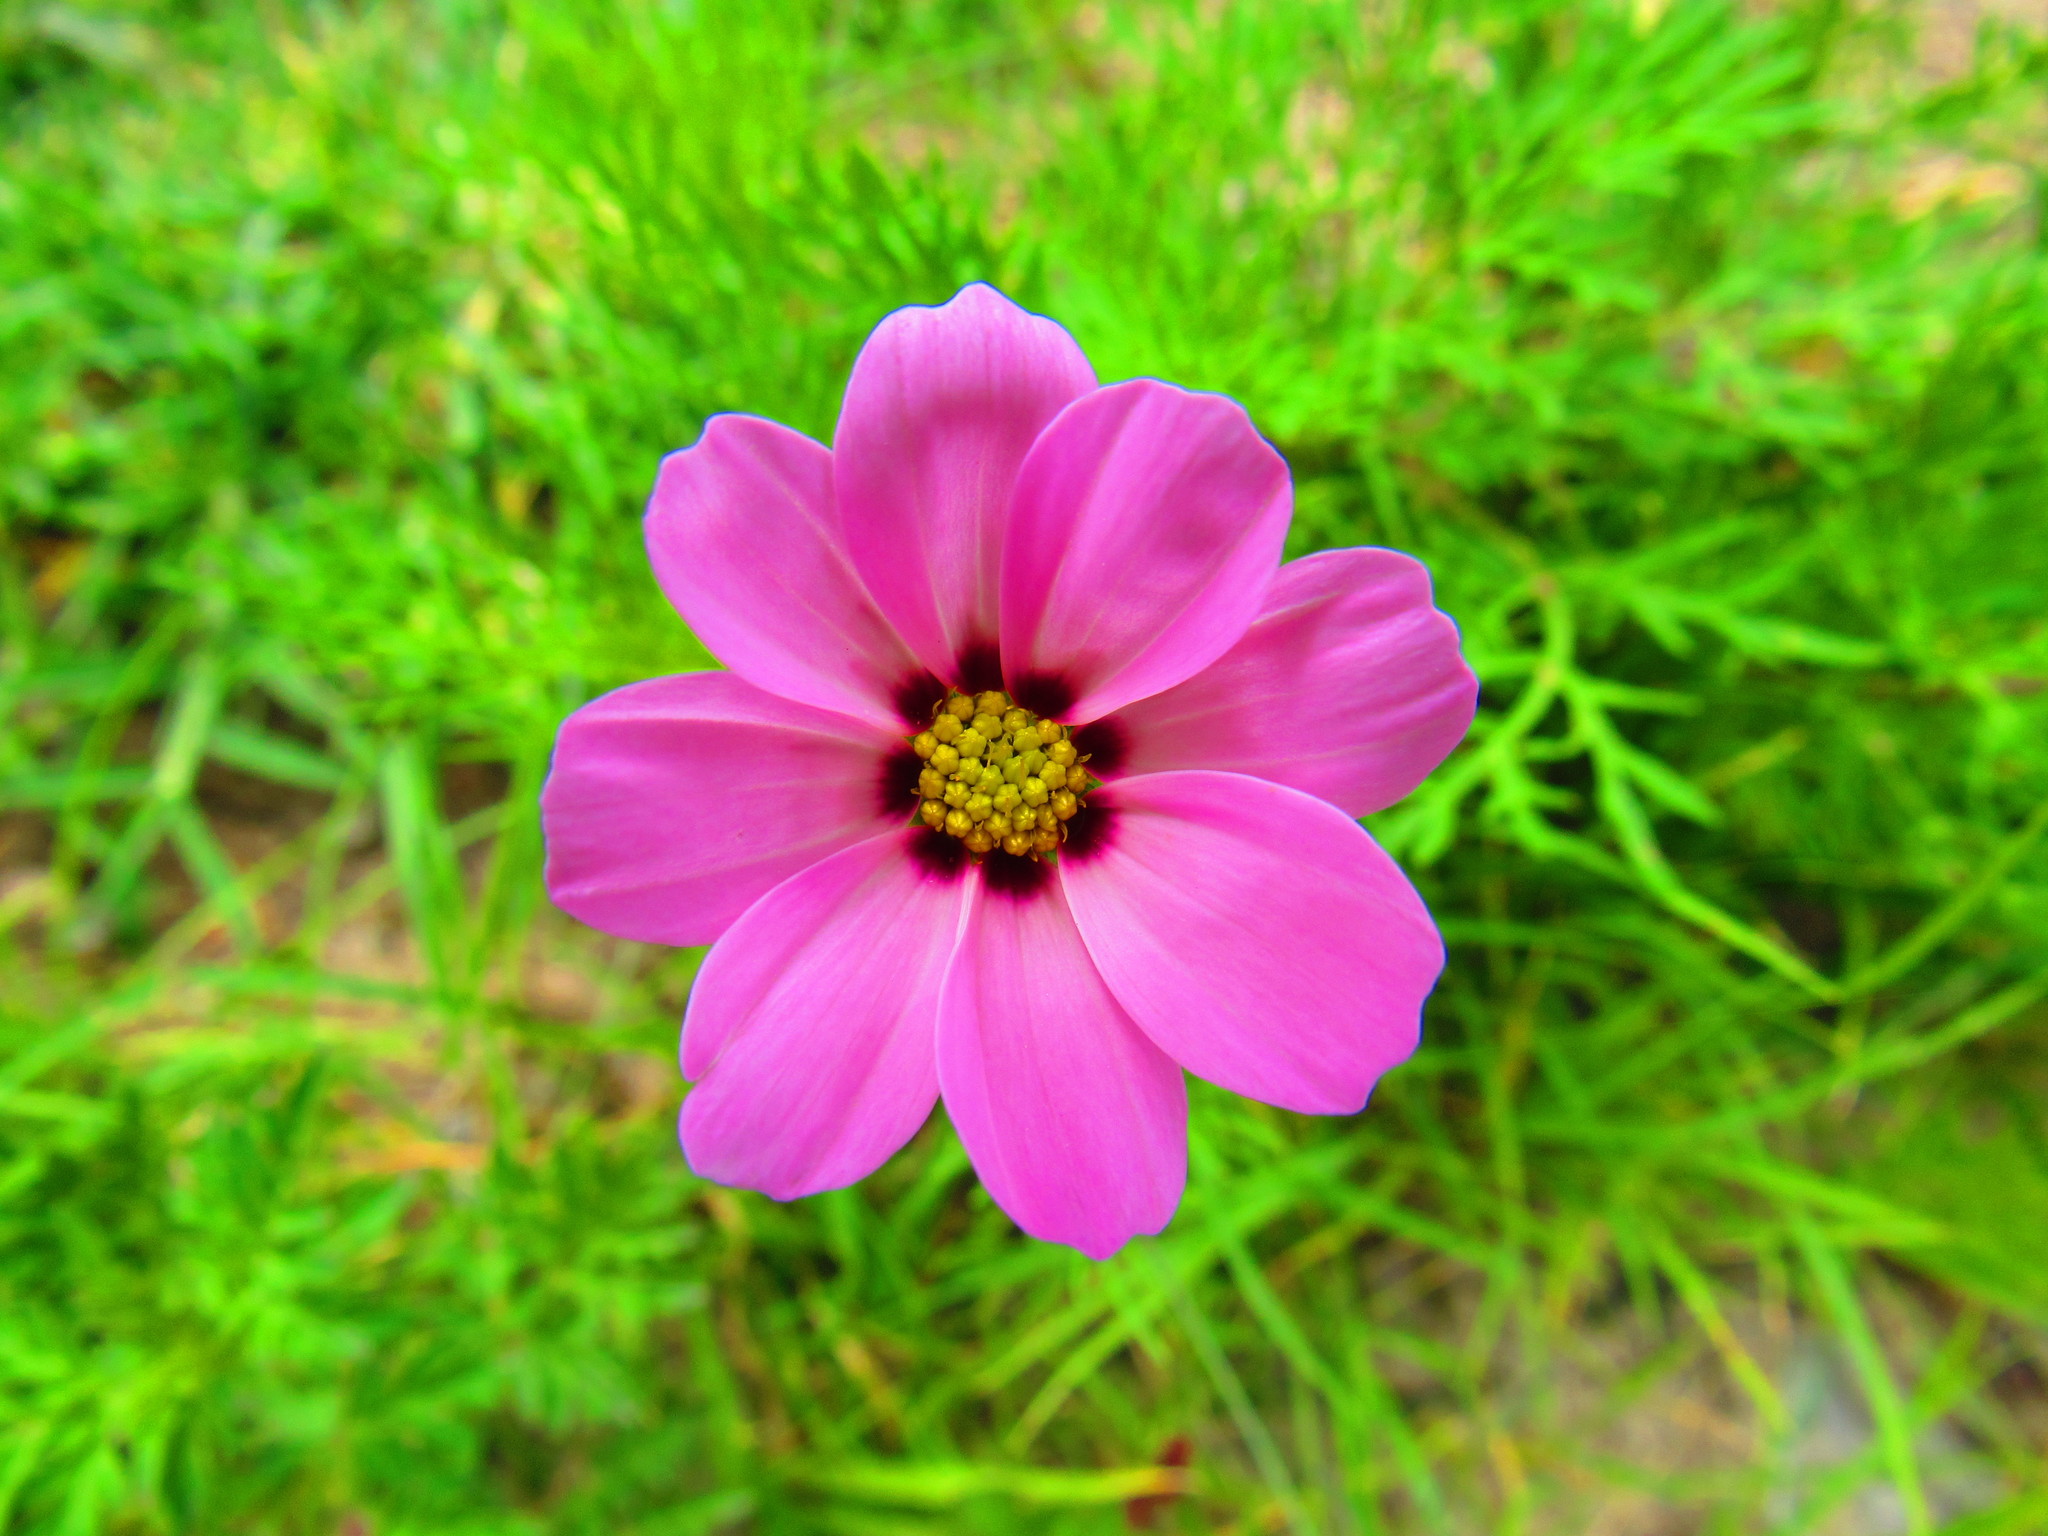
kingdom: Plantae
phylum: Tracheophyta
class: Magnoliopsida
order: Asterales
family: Asteraceae
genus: Cosmos
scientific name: Cosmos bipinnatus
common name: Garden cosmos
